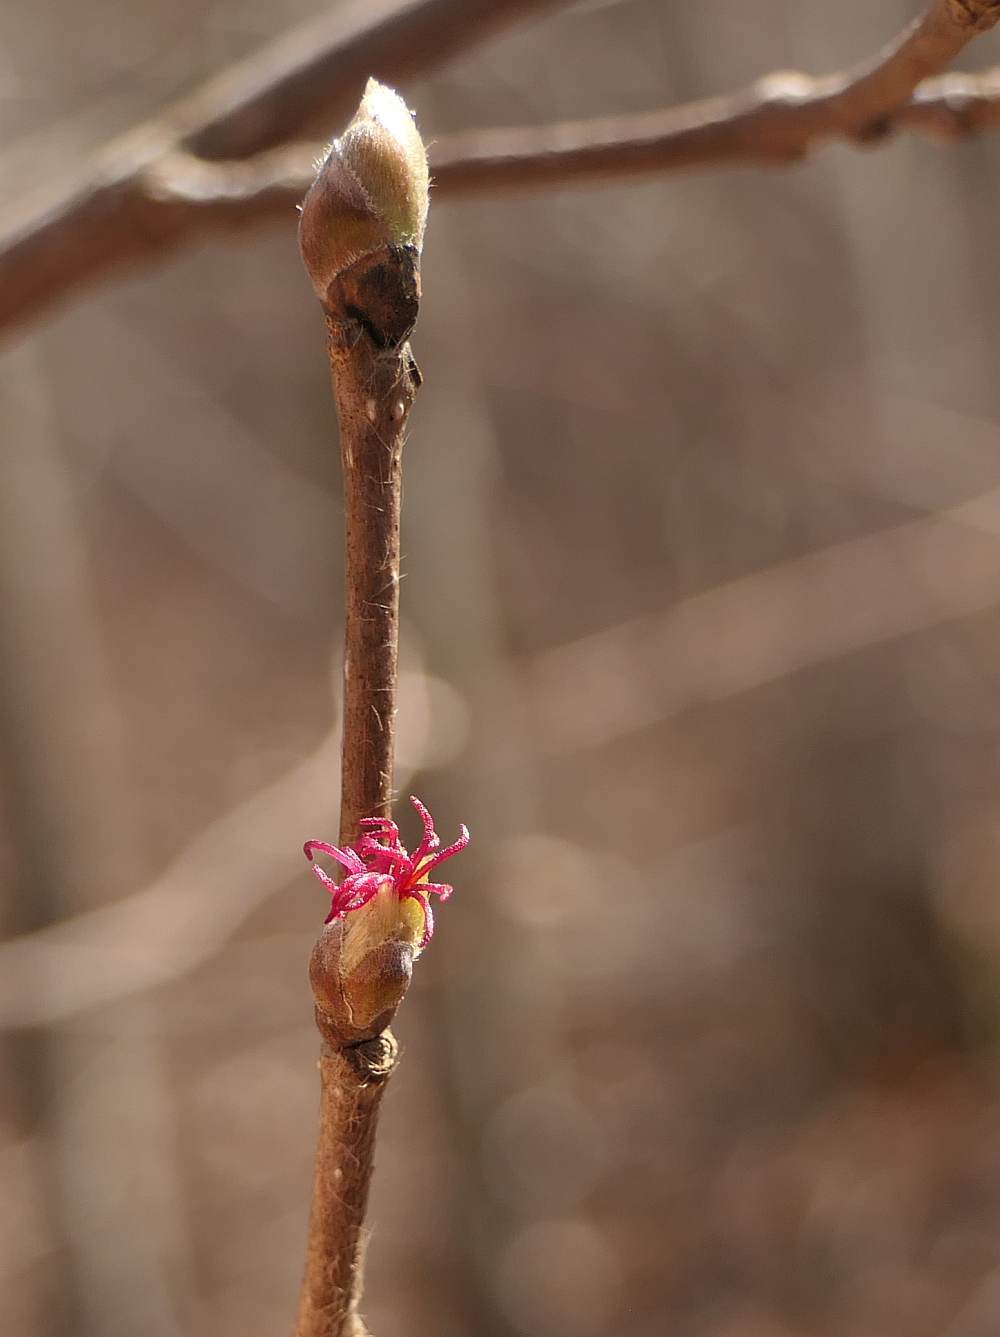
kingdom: Plantae
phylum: Tracheophyta
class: Magnoliopsida
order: Fagales
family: Betulaceae
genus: Corylus
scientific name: Corylus cornuta
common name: Beaked hazel
